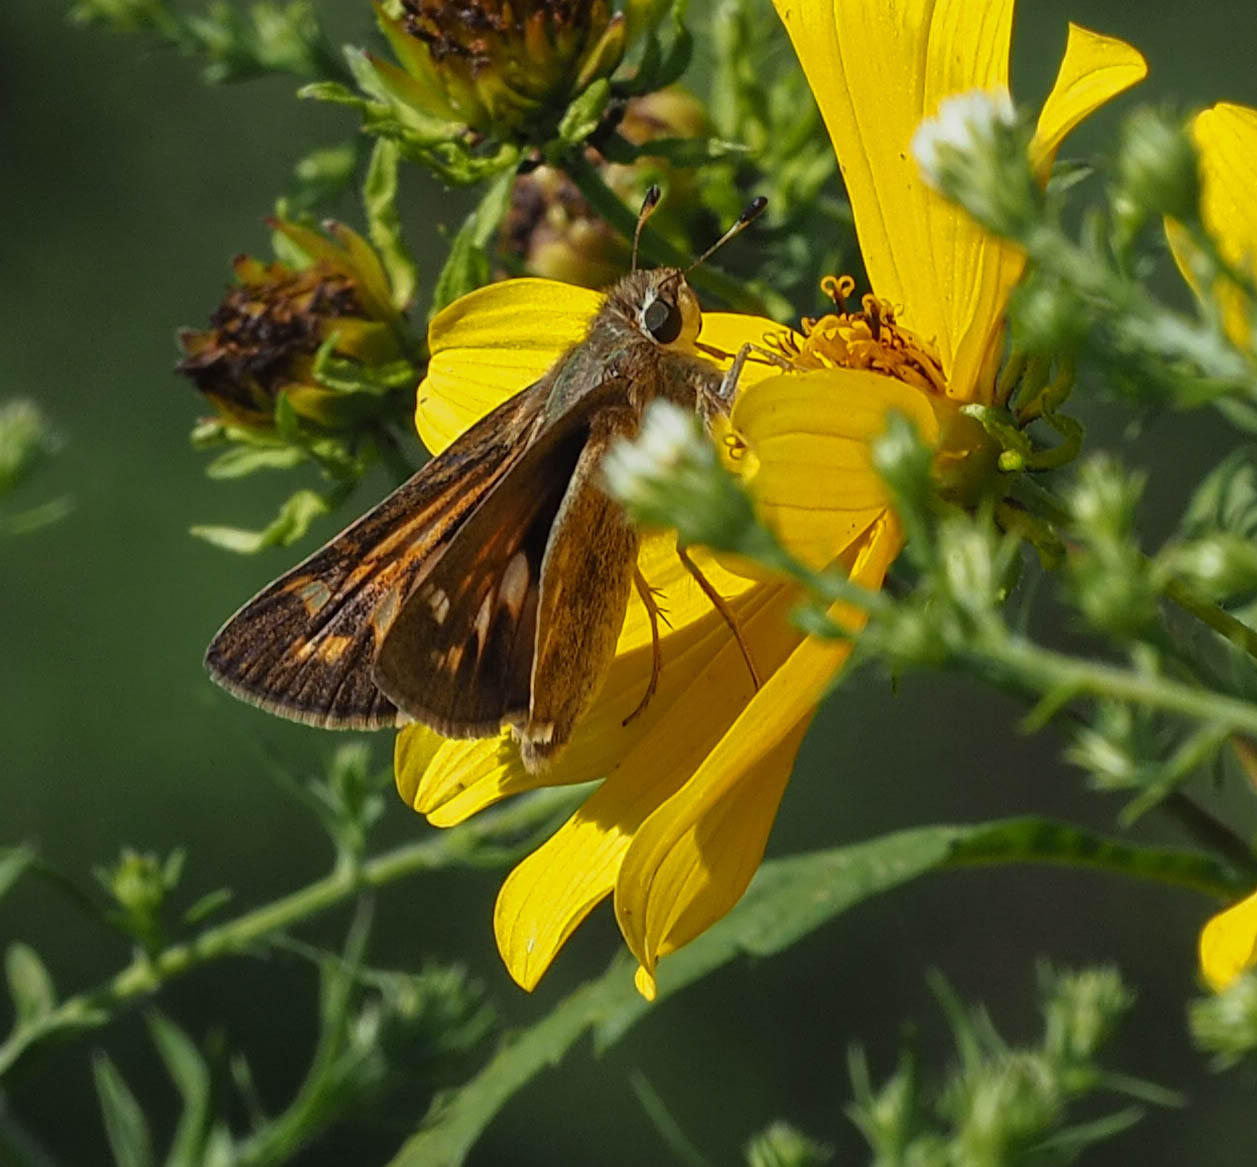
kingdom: Animalia
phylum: Arthropoda
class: Insecta
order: Lepidoptera
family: Hesperiidae
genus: Atalopedes
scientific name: Atalopedes
